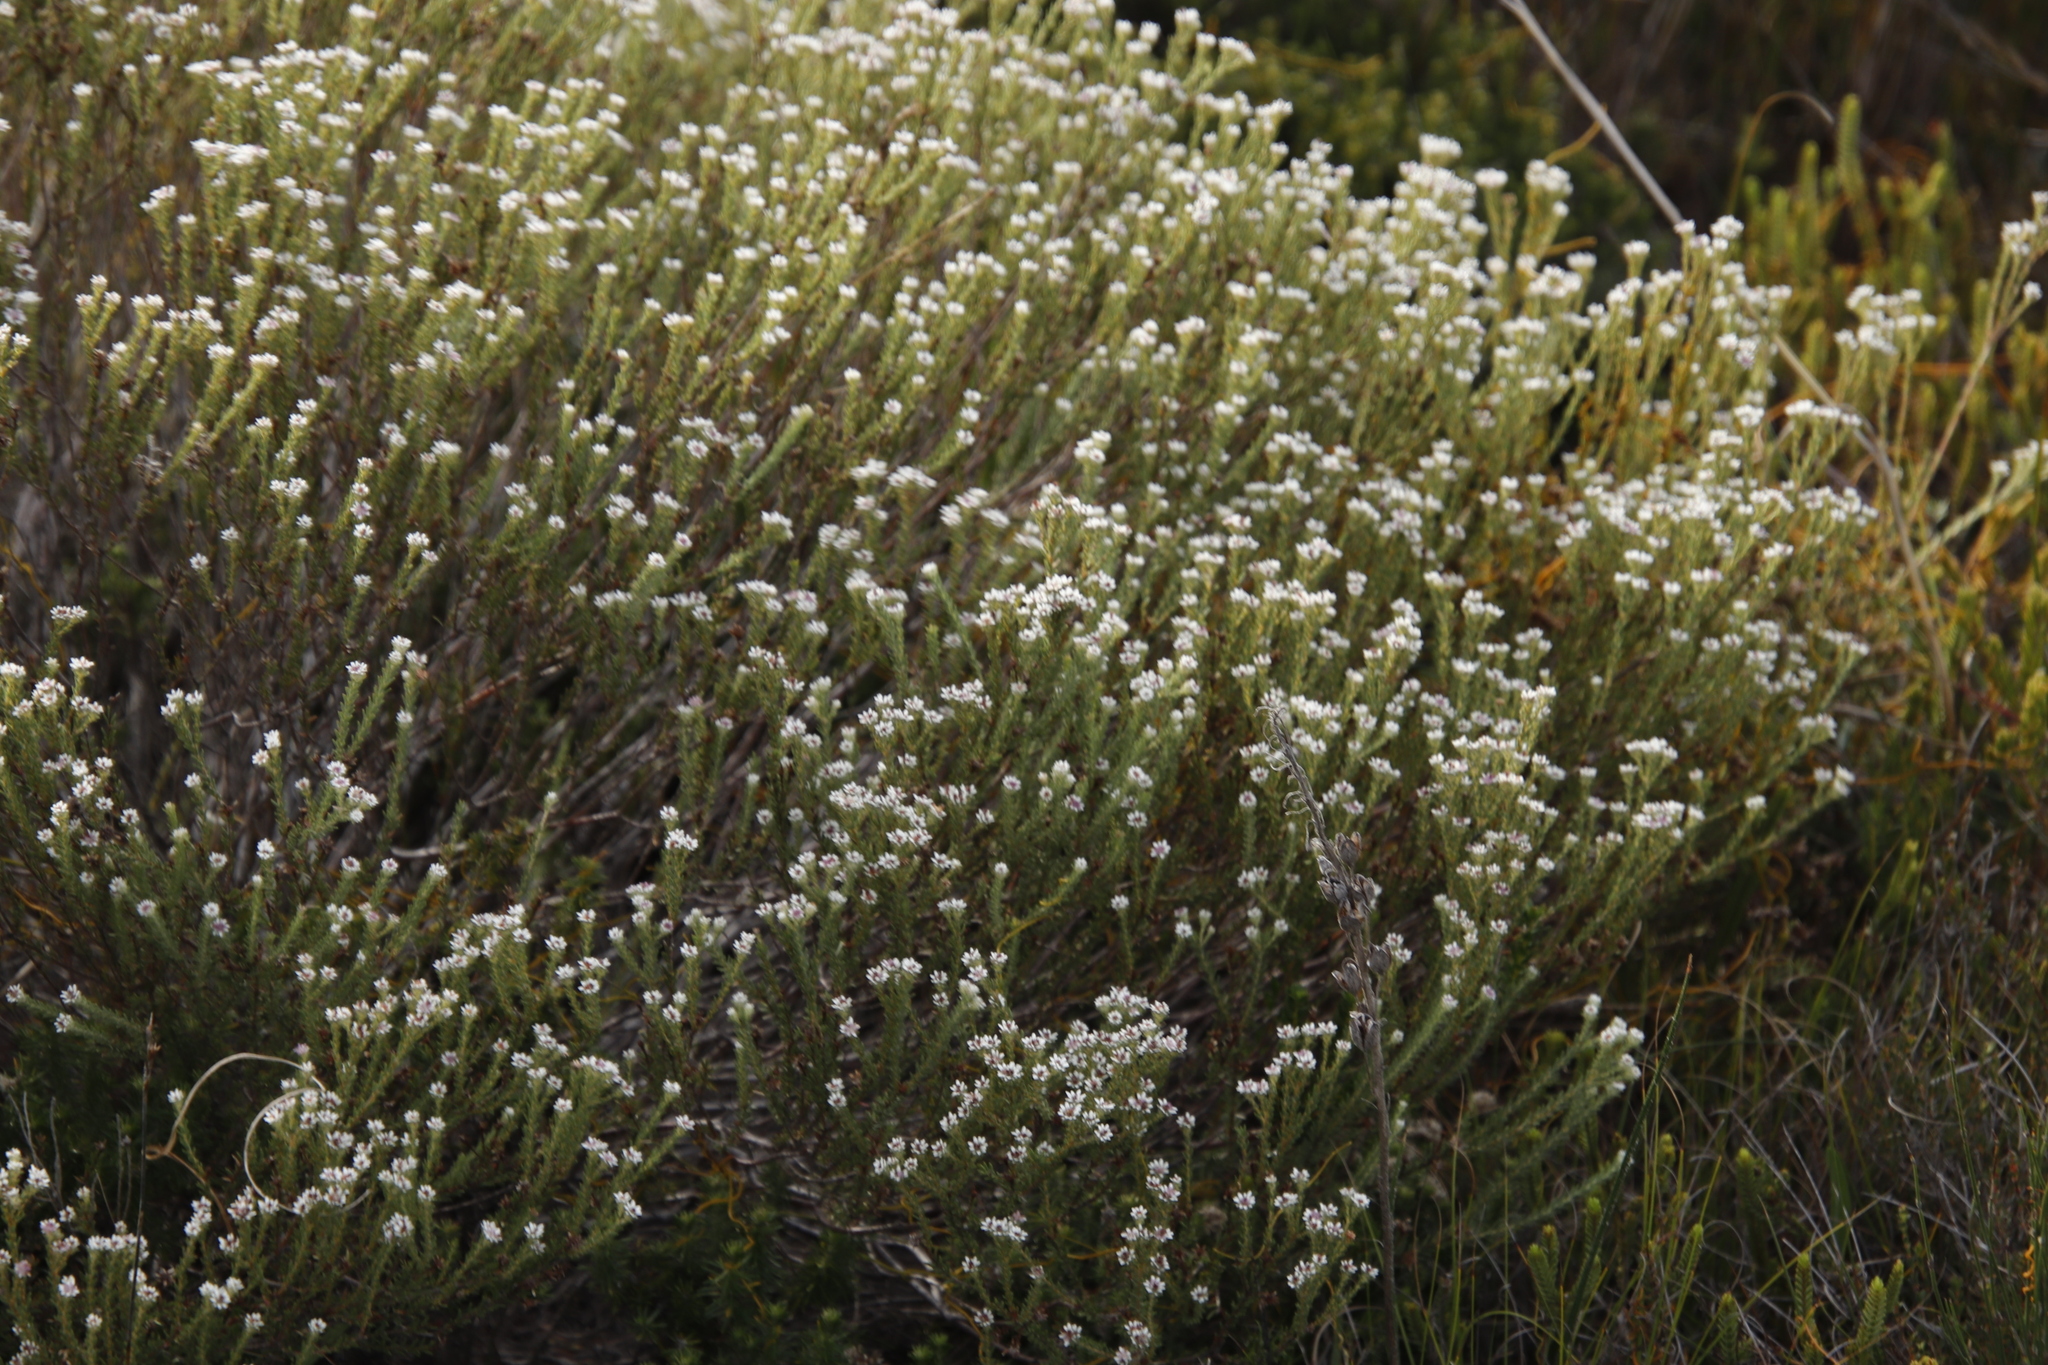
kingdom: Plantae
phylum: Tracheophyta
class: Magnoliopsida
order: Bruniales
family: Bruniaceae
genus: Staavia
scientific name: Staavia radiata
